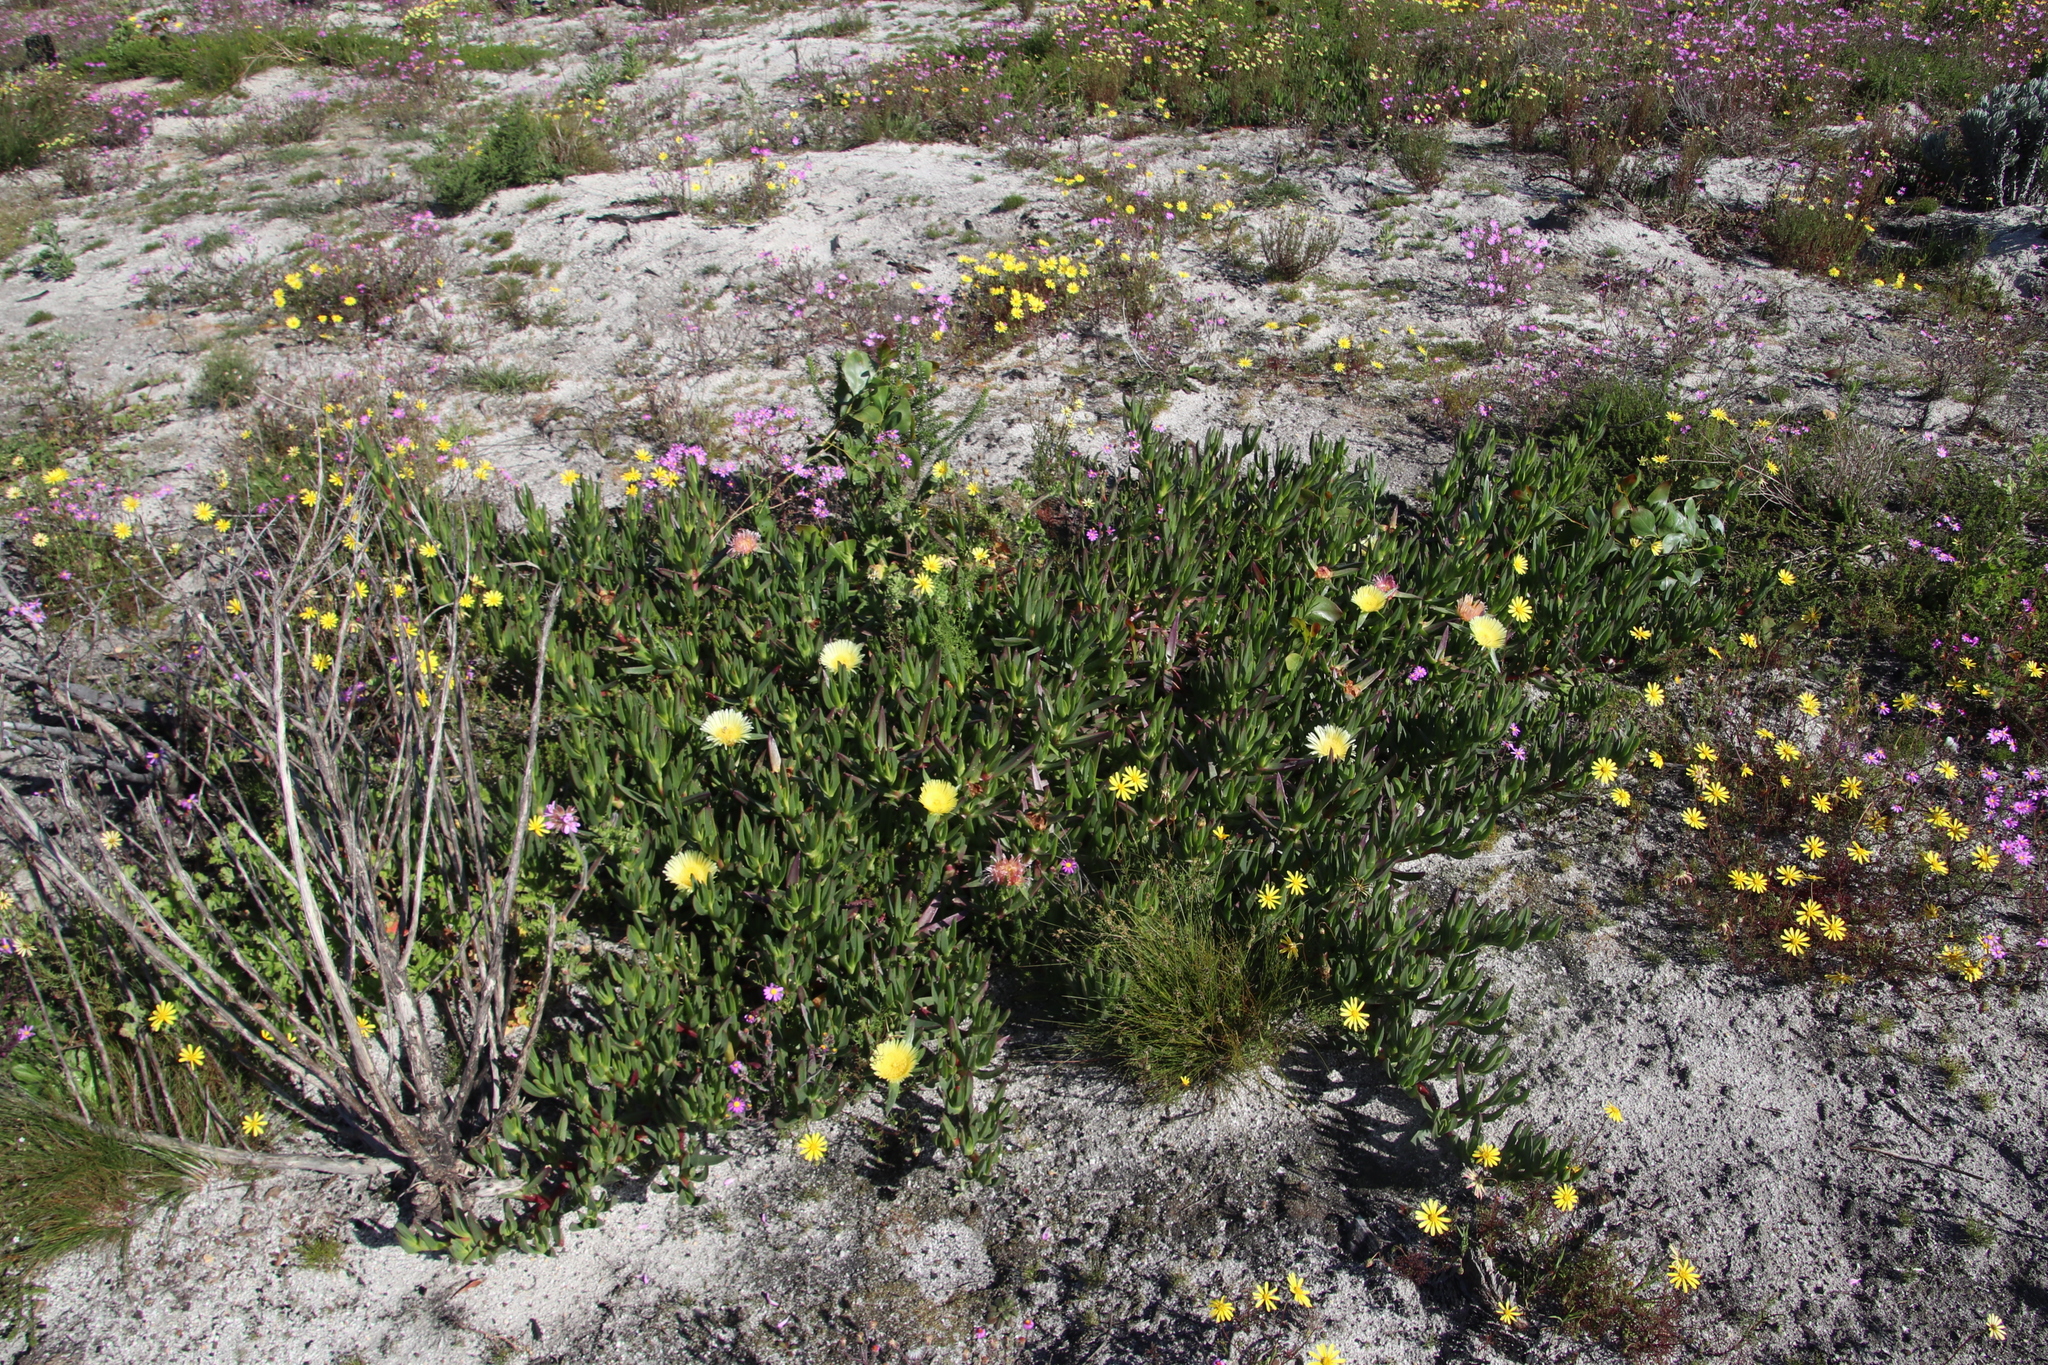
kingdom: Plantae
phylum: Tracheophyta
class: Magnoliopsida
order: Caryophyllales
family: Aizoaceae
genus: Carpobrotus
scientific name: Carpobrotus edulis
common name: Hottentot-fig
